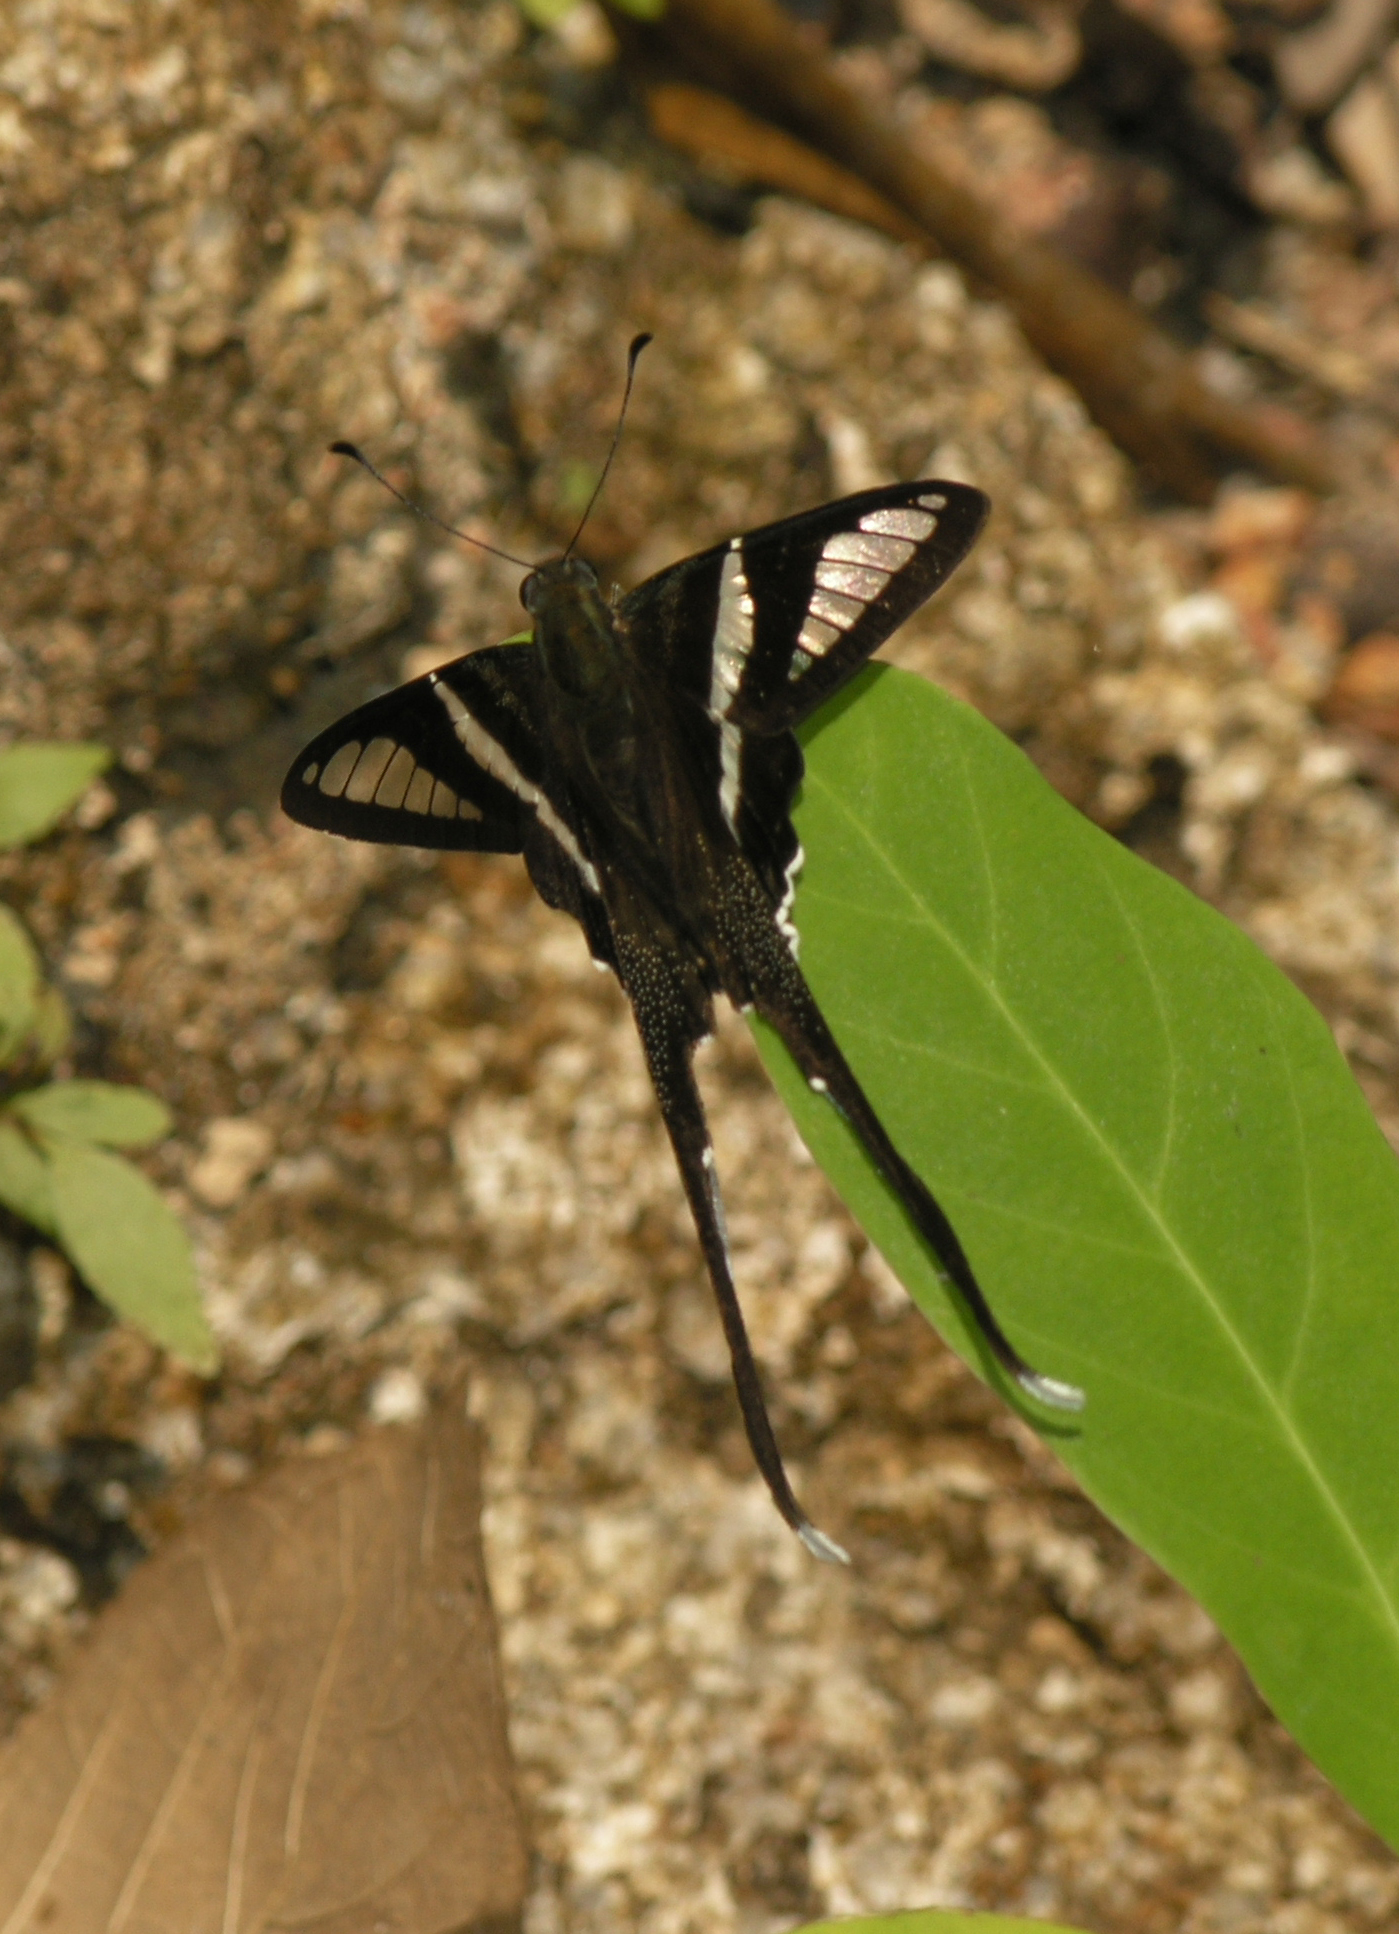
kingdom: Animalia
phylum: Arthropoda
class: Insecta
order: Lepidoptera
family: Papilionidae
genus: Lamproptera
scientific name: Lamproptera curius
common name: White dragontail
